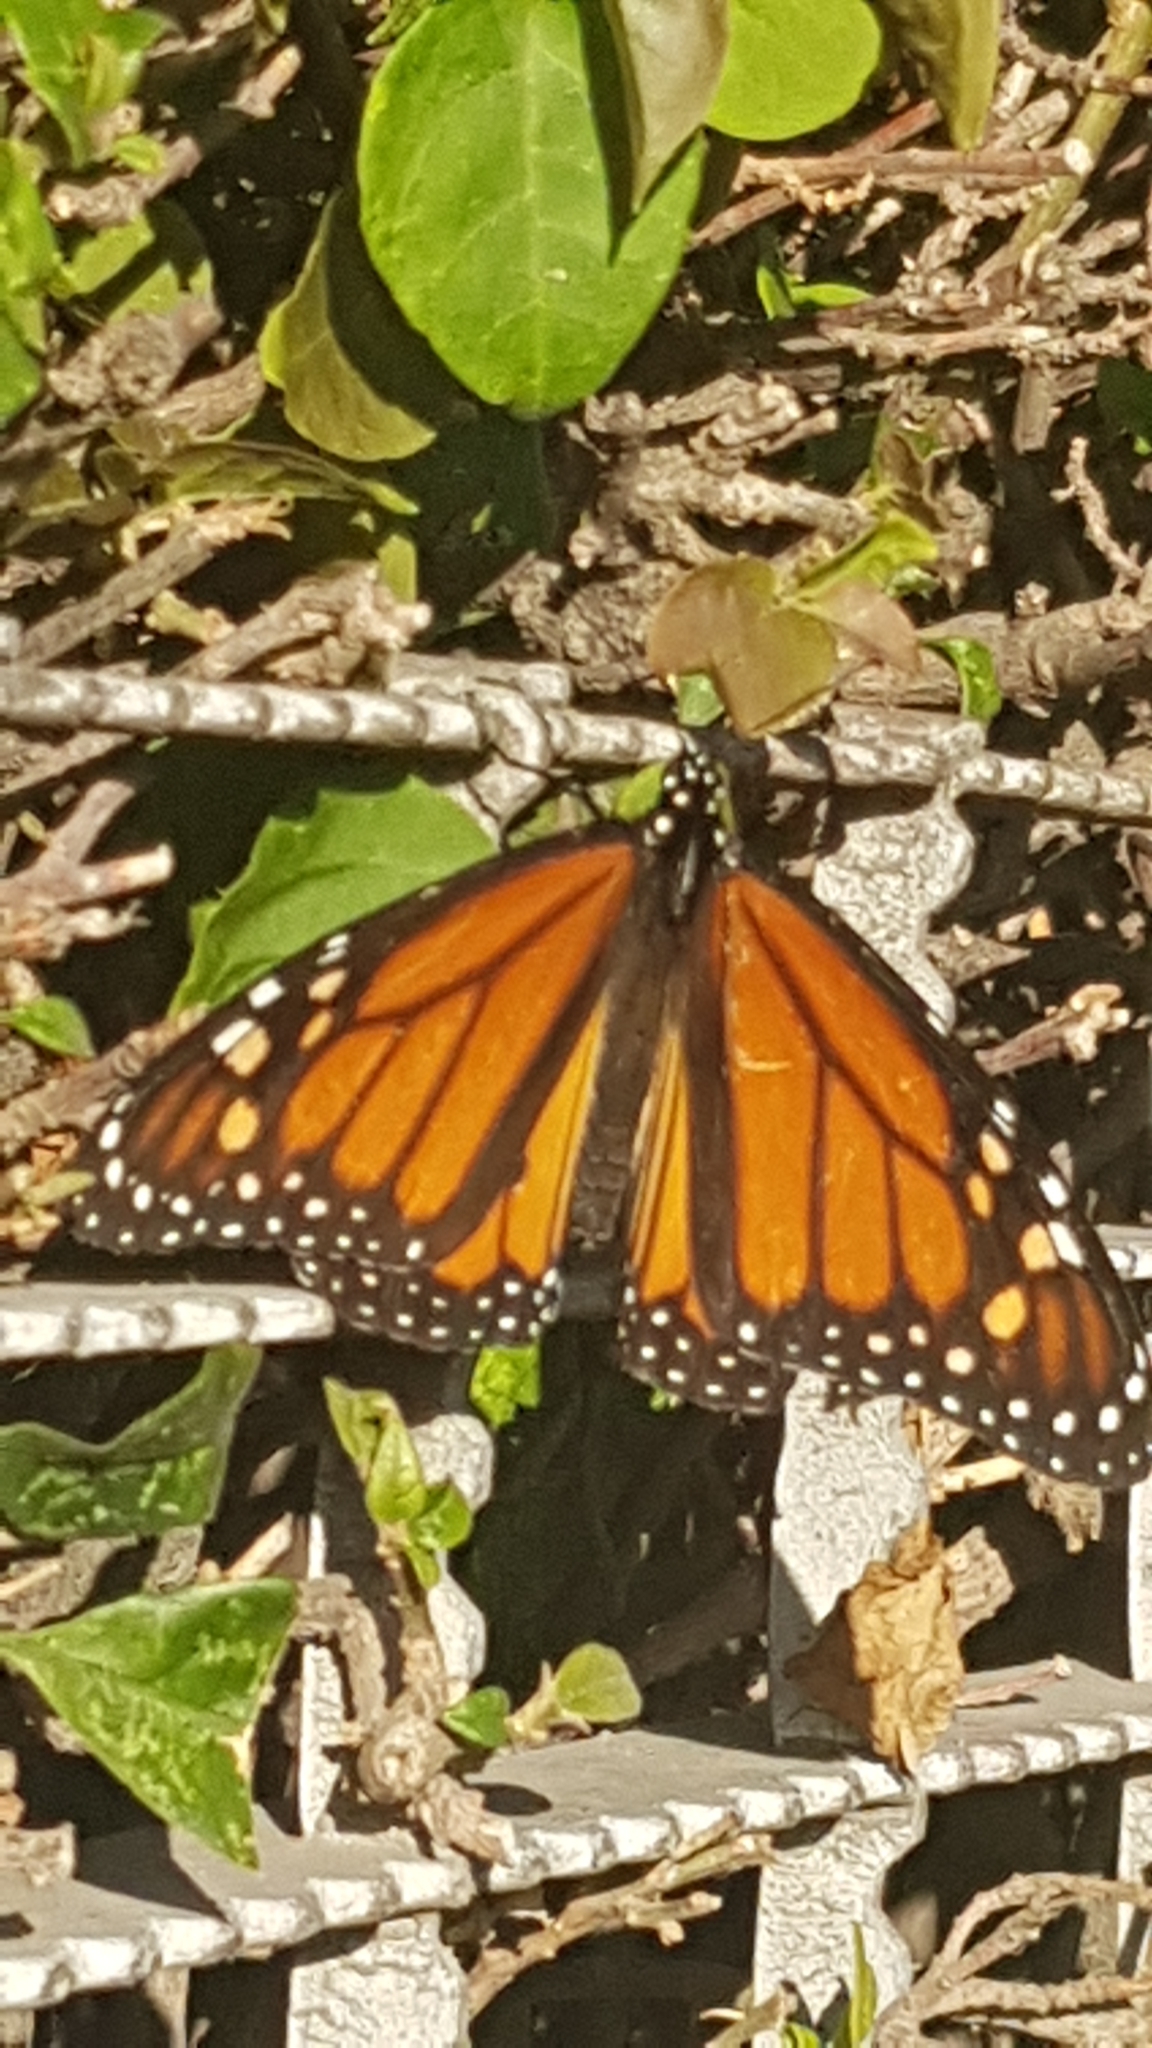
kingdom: Animalia
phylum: Arthropoda
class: Insecta
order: Lepidoptera
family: Nymphalidae
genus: Danaus
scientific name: Danaus plexippus
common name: Monarch
